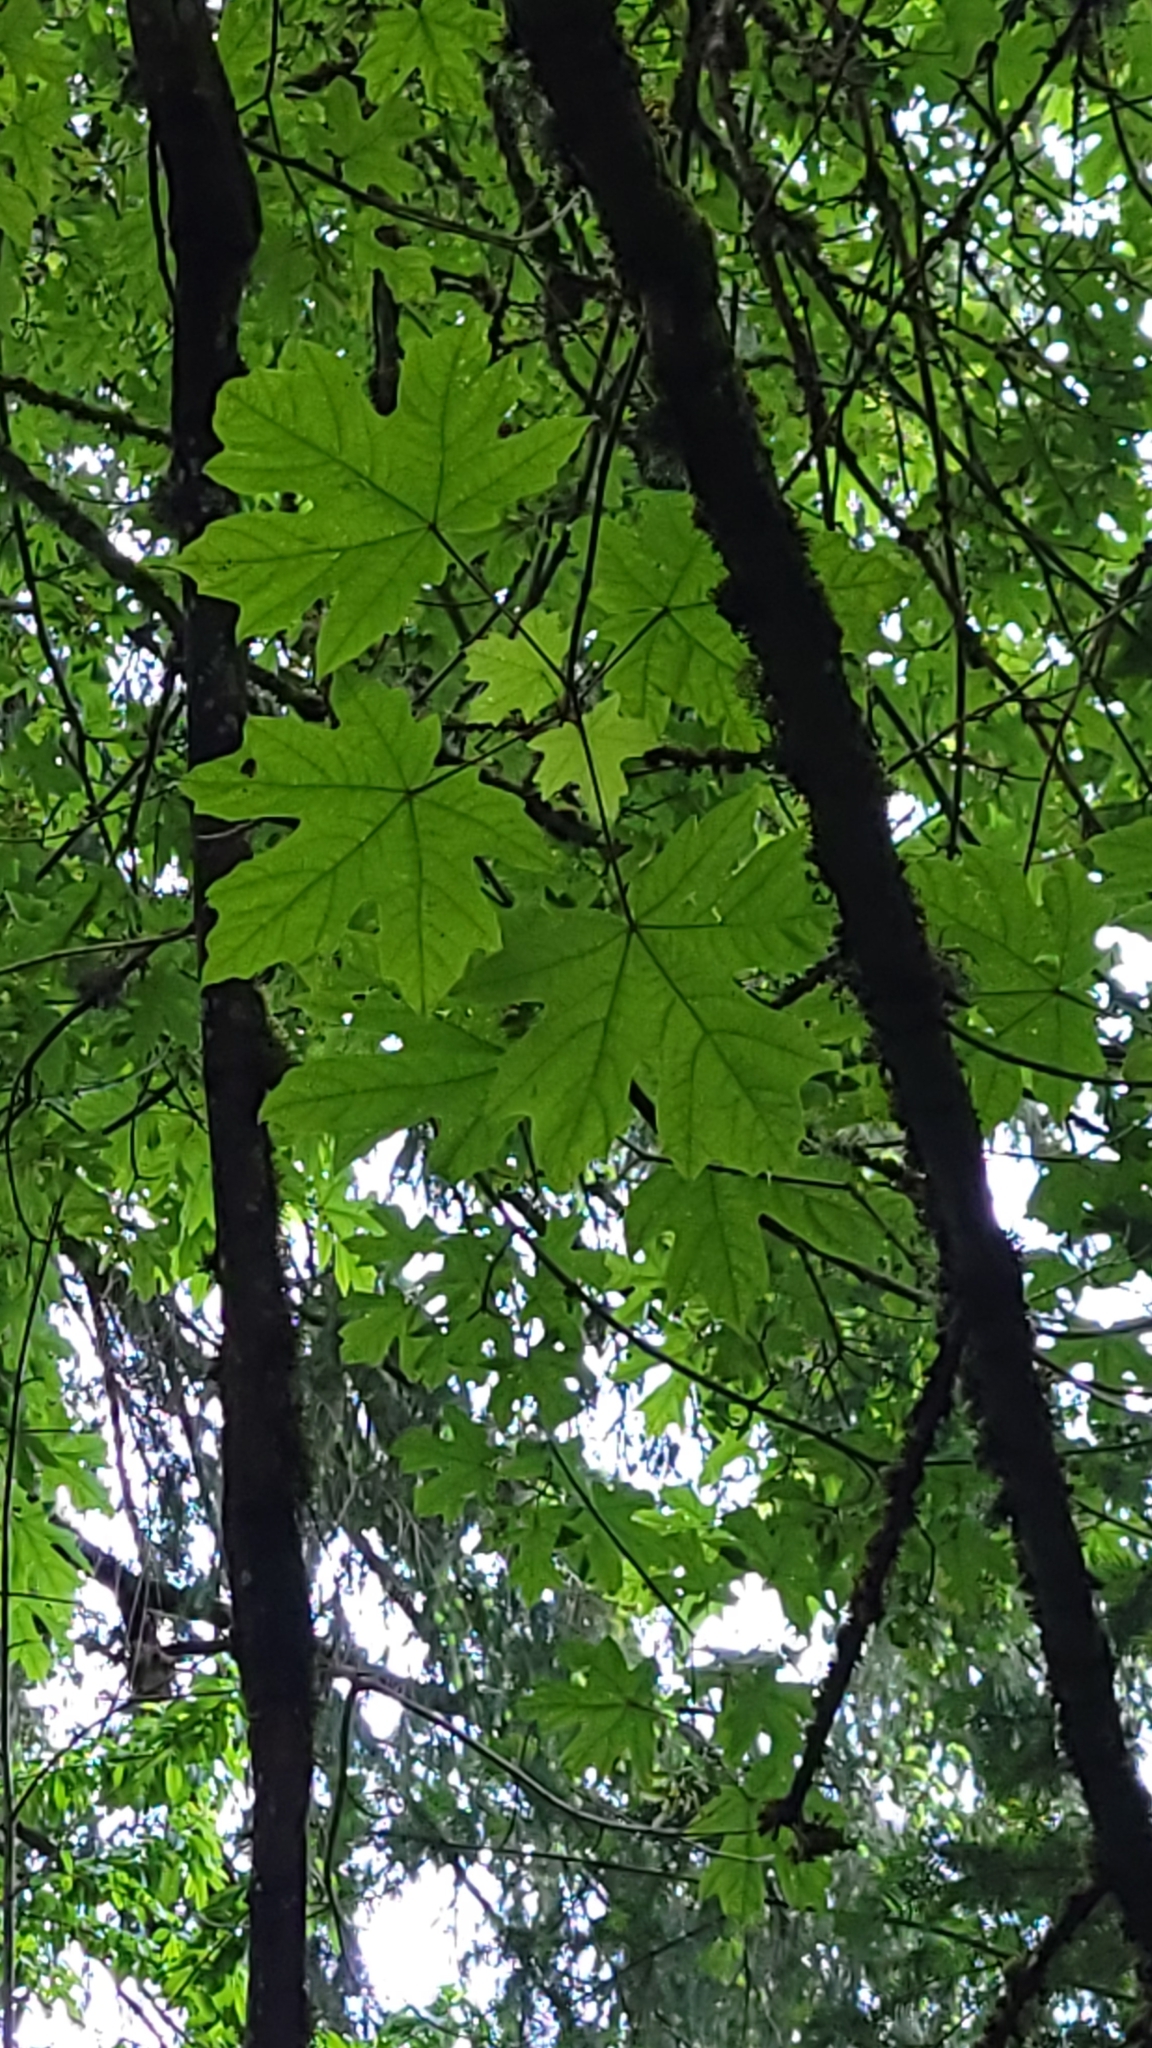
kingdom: Plantae
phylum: Tracheophyta
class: Magnoliopsida
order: Sapindales
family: Sapindaceae
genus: Acer
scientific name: Acer macrophyllum
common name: Oregon maple
